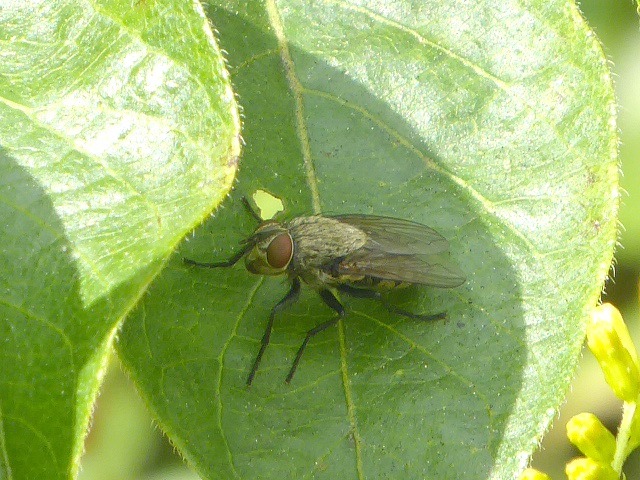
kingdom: Animalia
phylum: Arthropoda
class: Insecta
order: Diptera
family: Polleniidae
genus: Pollenia
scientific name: Pollenia
